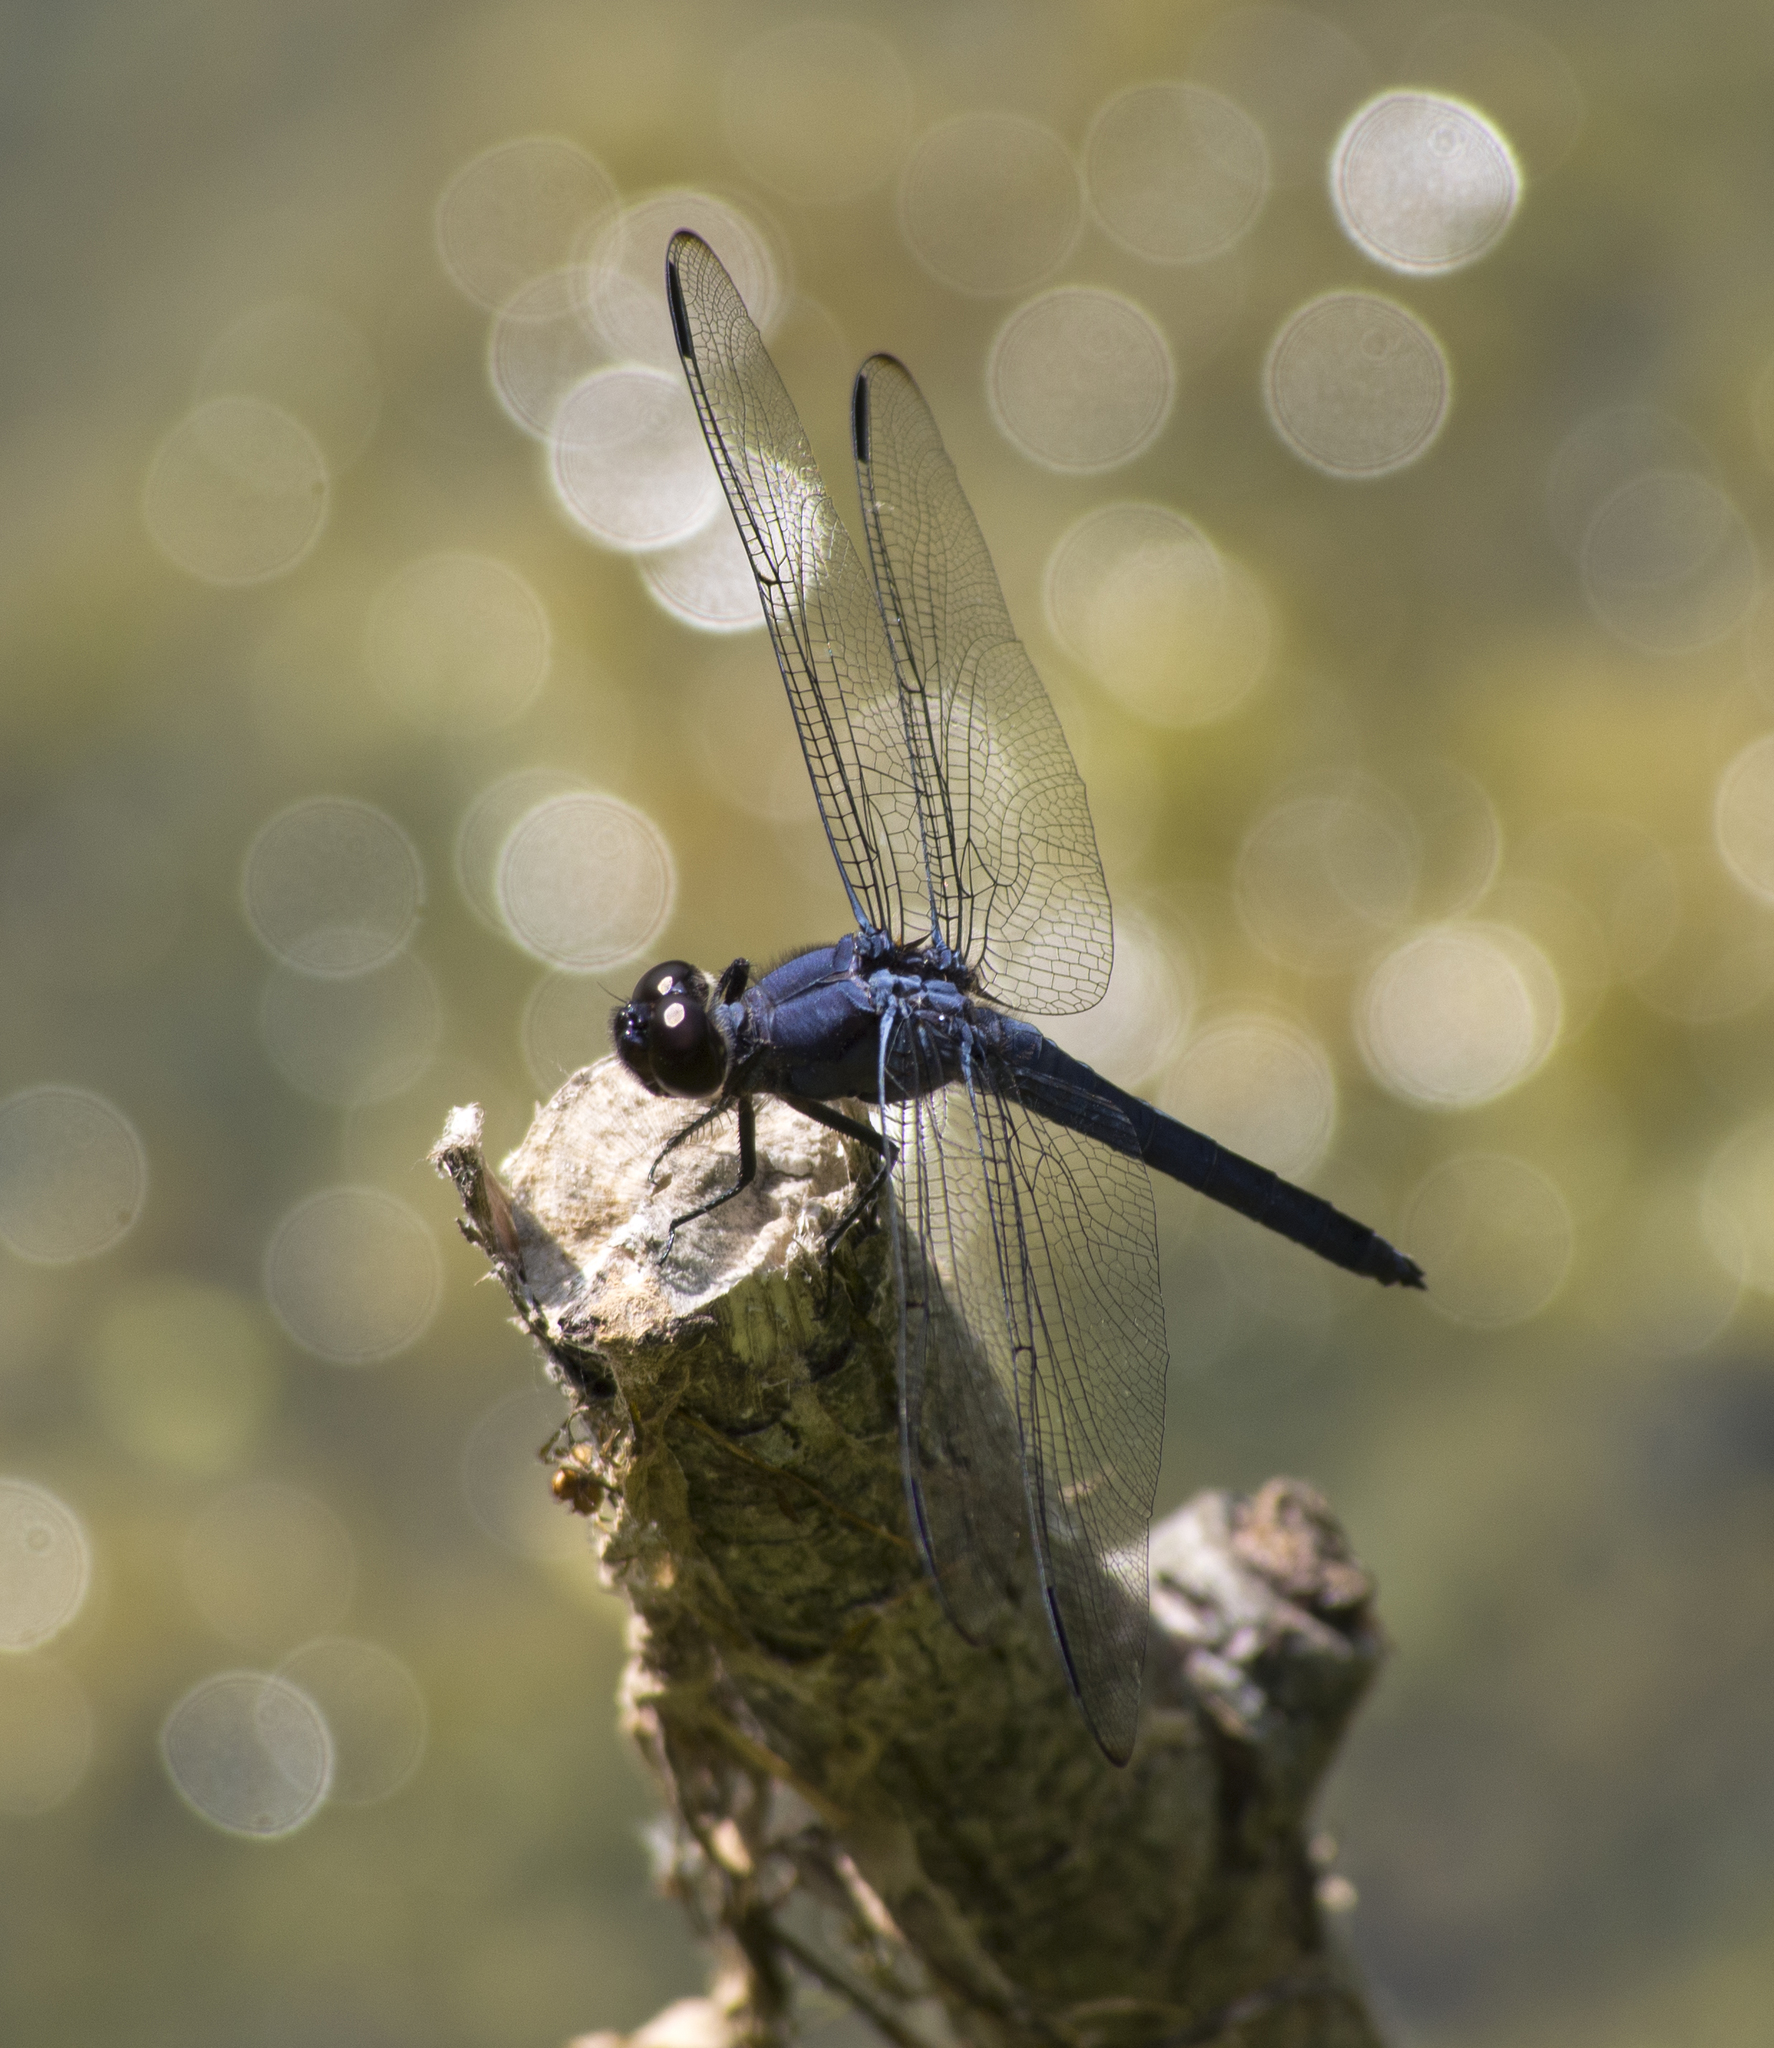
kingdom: Animalia
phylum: Arthropoda
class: Insecta
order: Odonata
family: Libellulidae
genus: Libellula
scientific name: Libellula incesta
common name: Slaty skimmer
